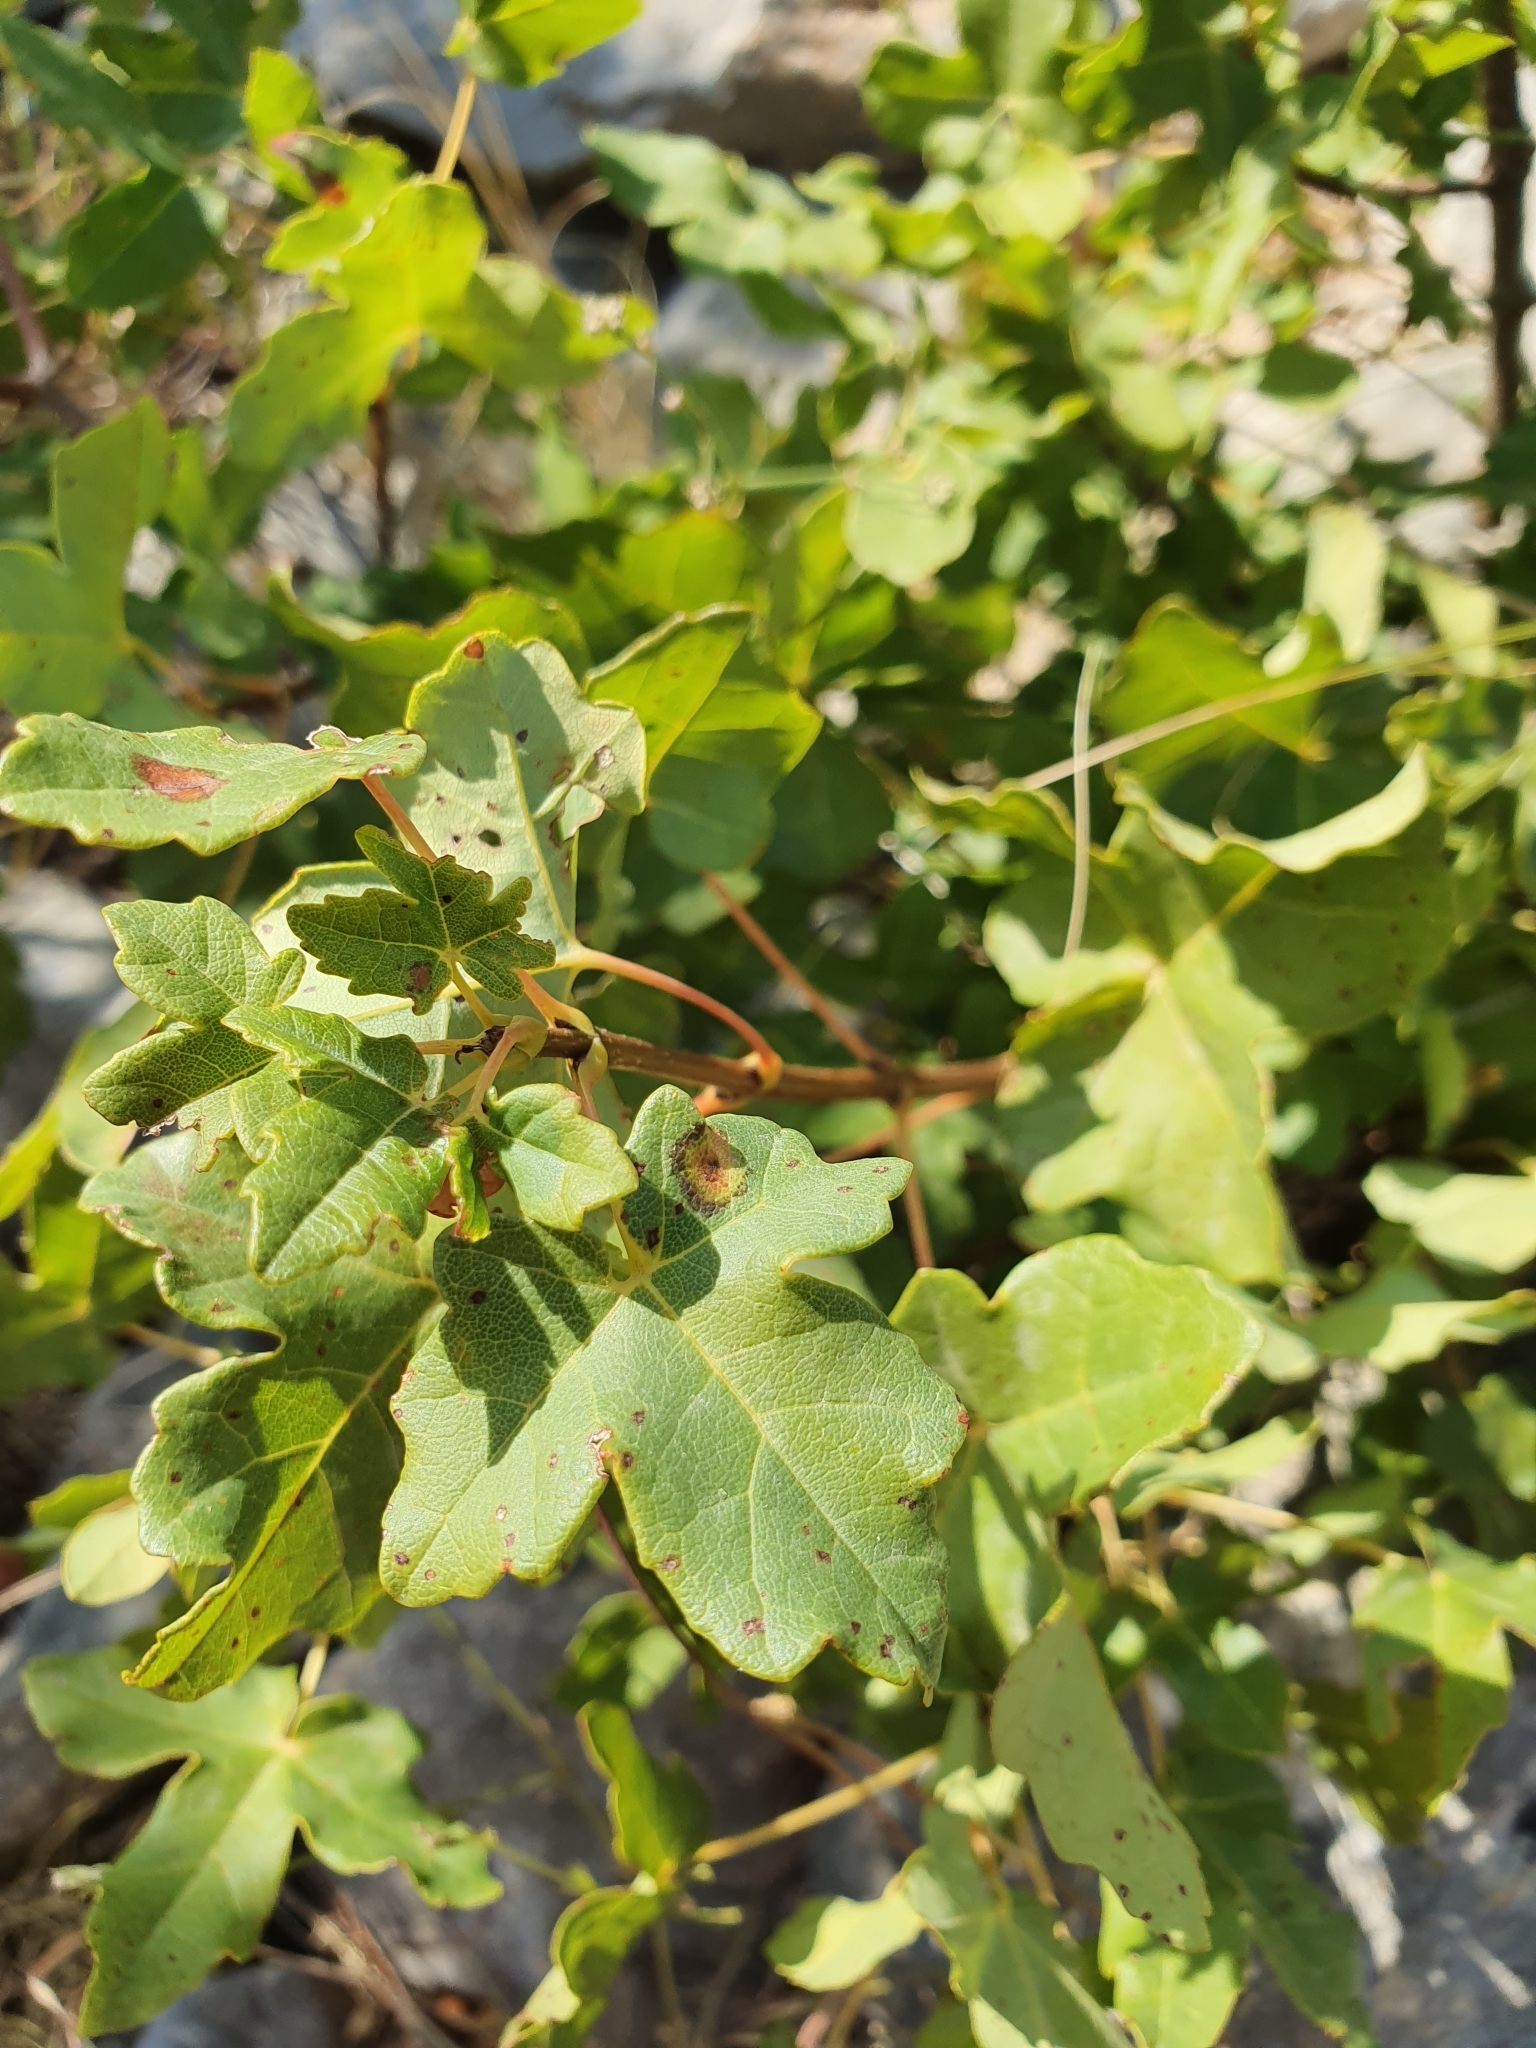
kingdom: Plantae
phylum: Tracheophyta
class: Magnoliopsida
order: Sapindales
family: Sapindaceae
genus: Acer
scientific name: Acer monspessulanum
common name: Montpellier maple
